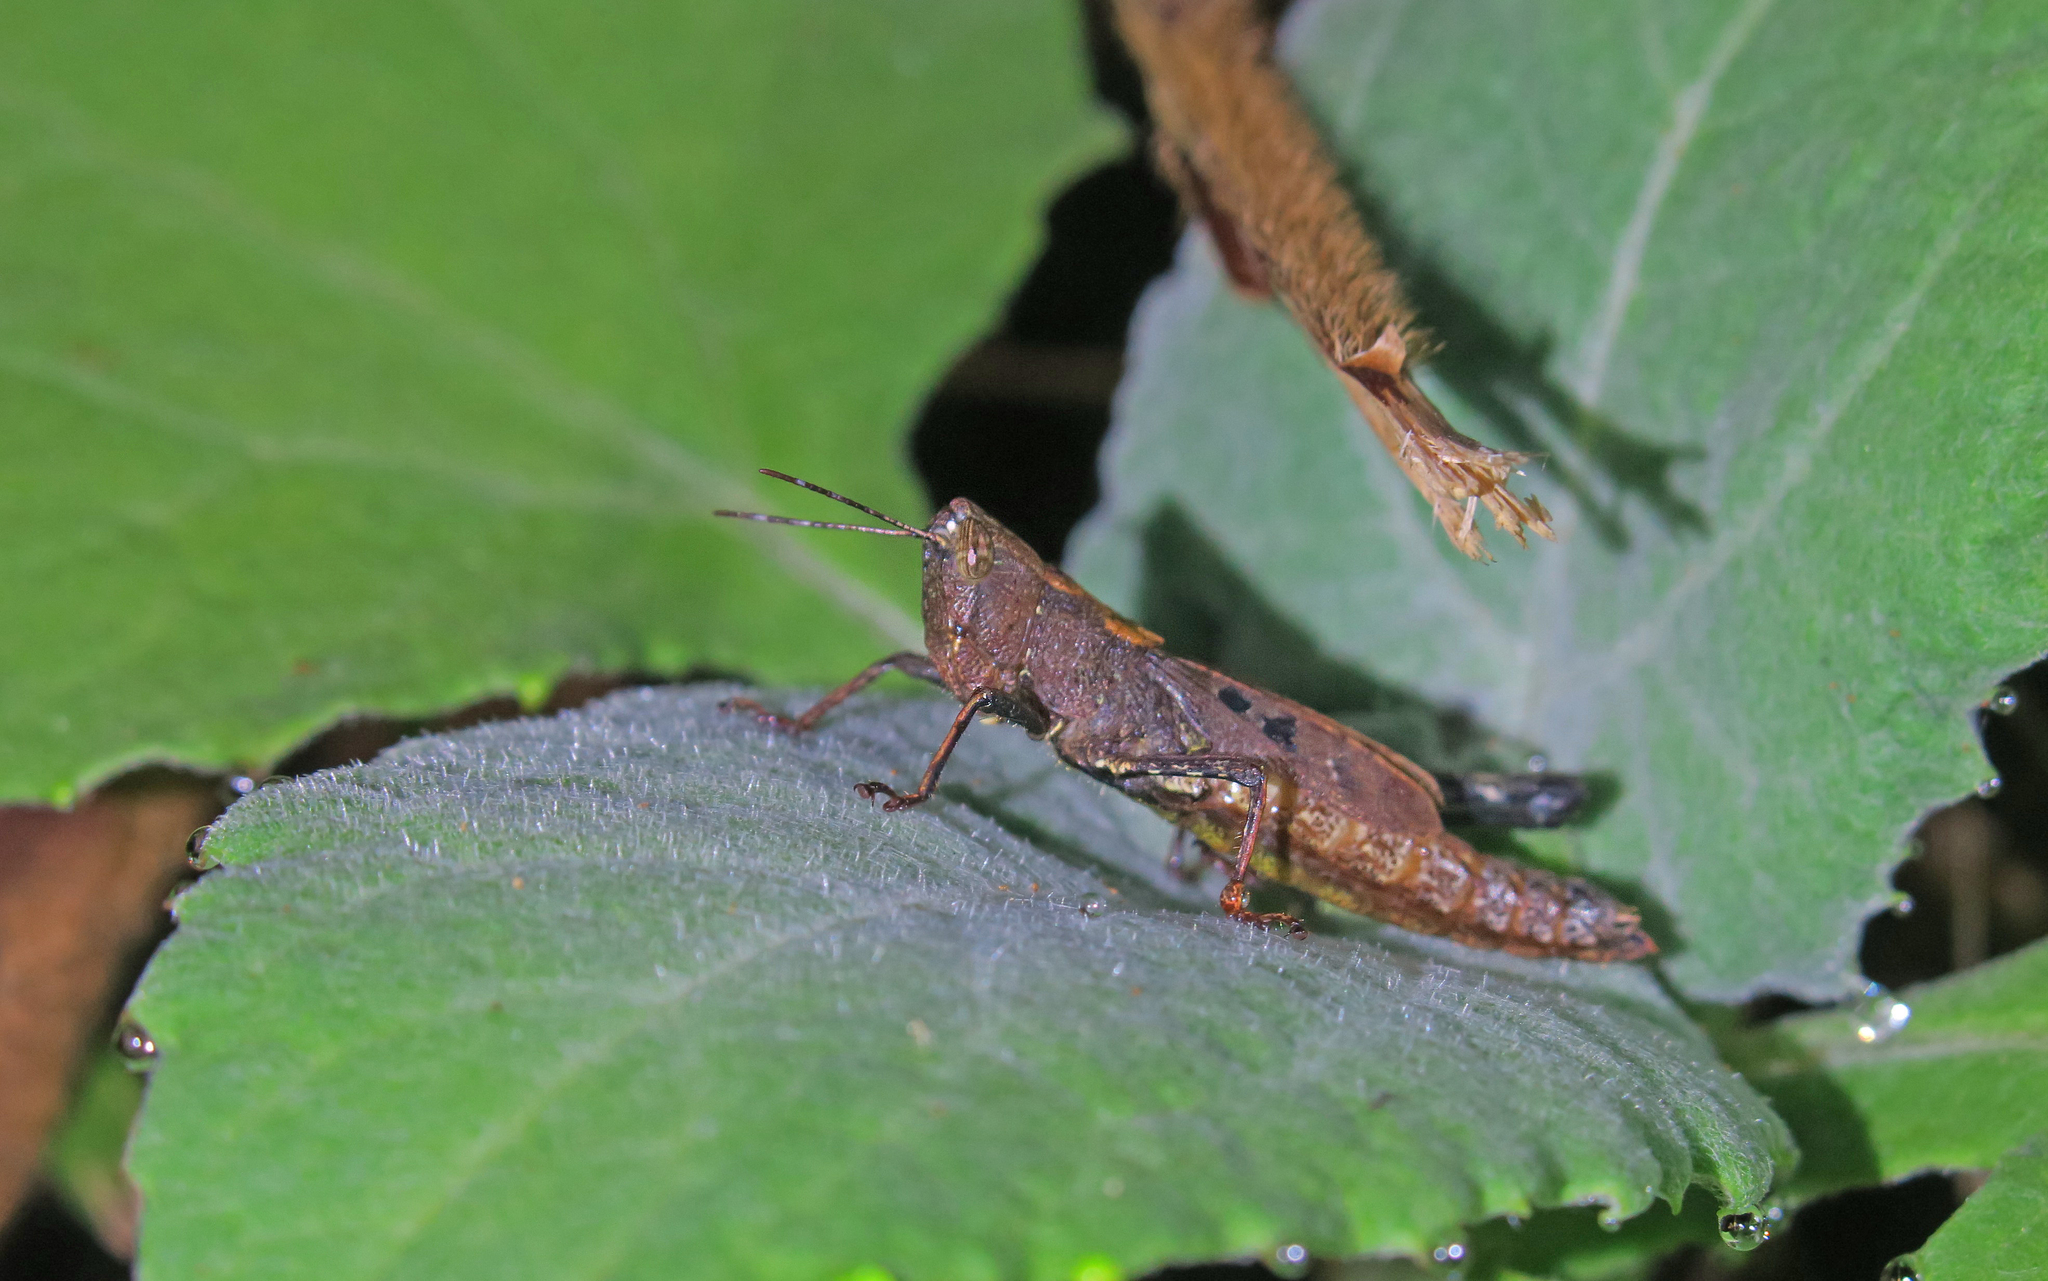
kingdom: Animalia
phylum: Arthropoda
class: Insecta
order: Orthoptera
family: Acrididae
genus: Abracris
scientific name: Abracris flavolineata
